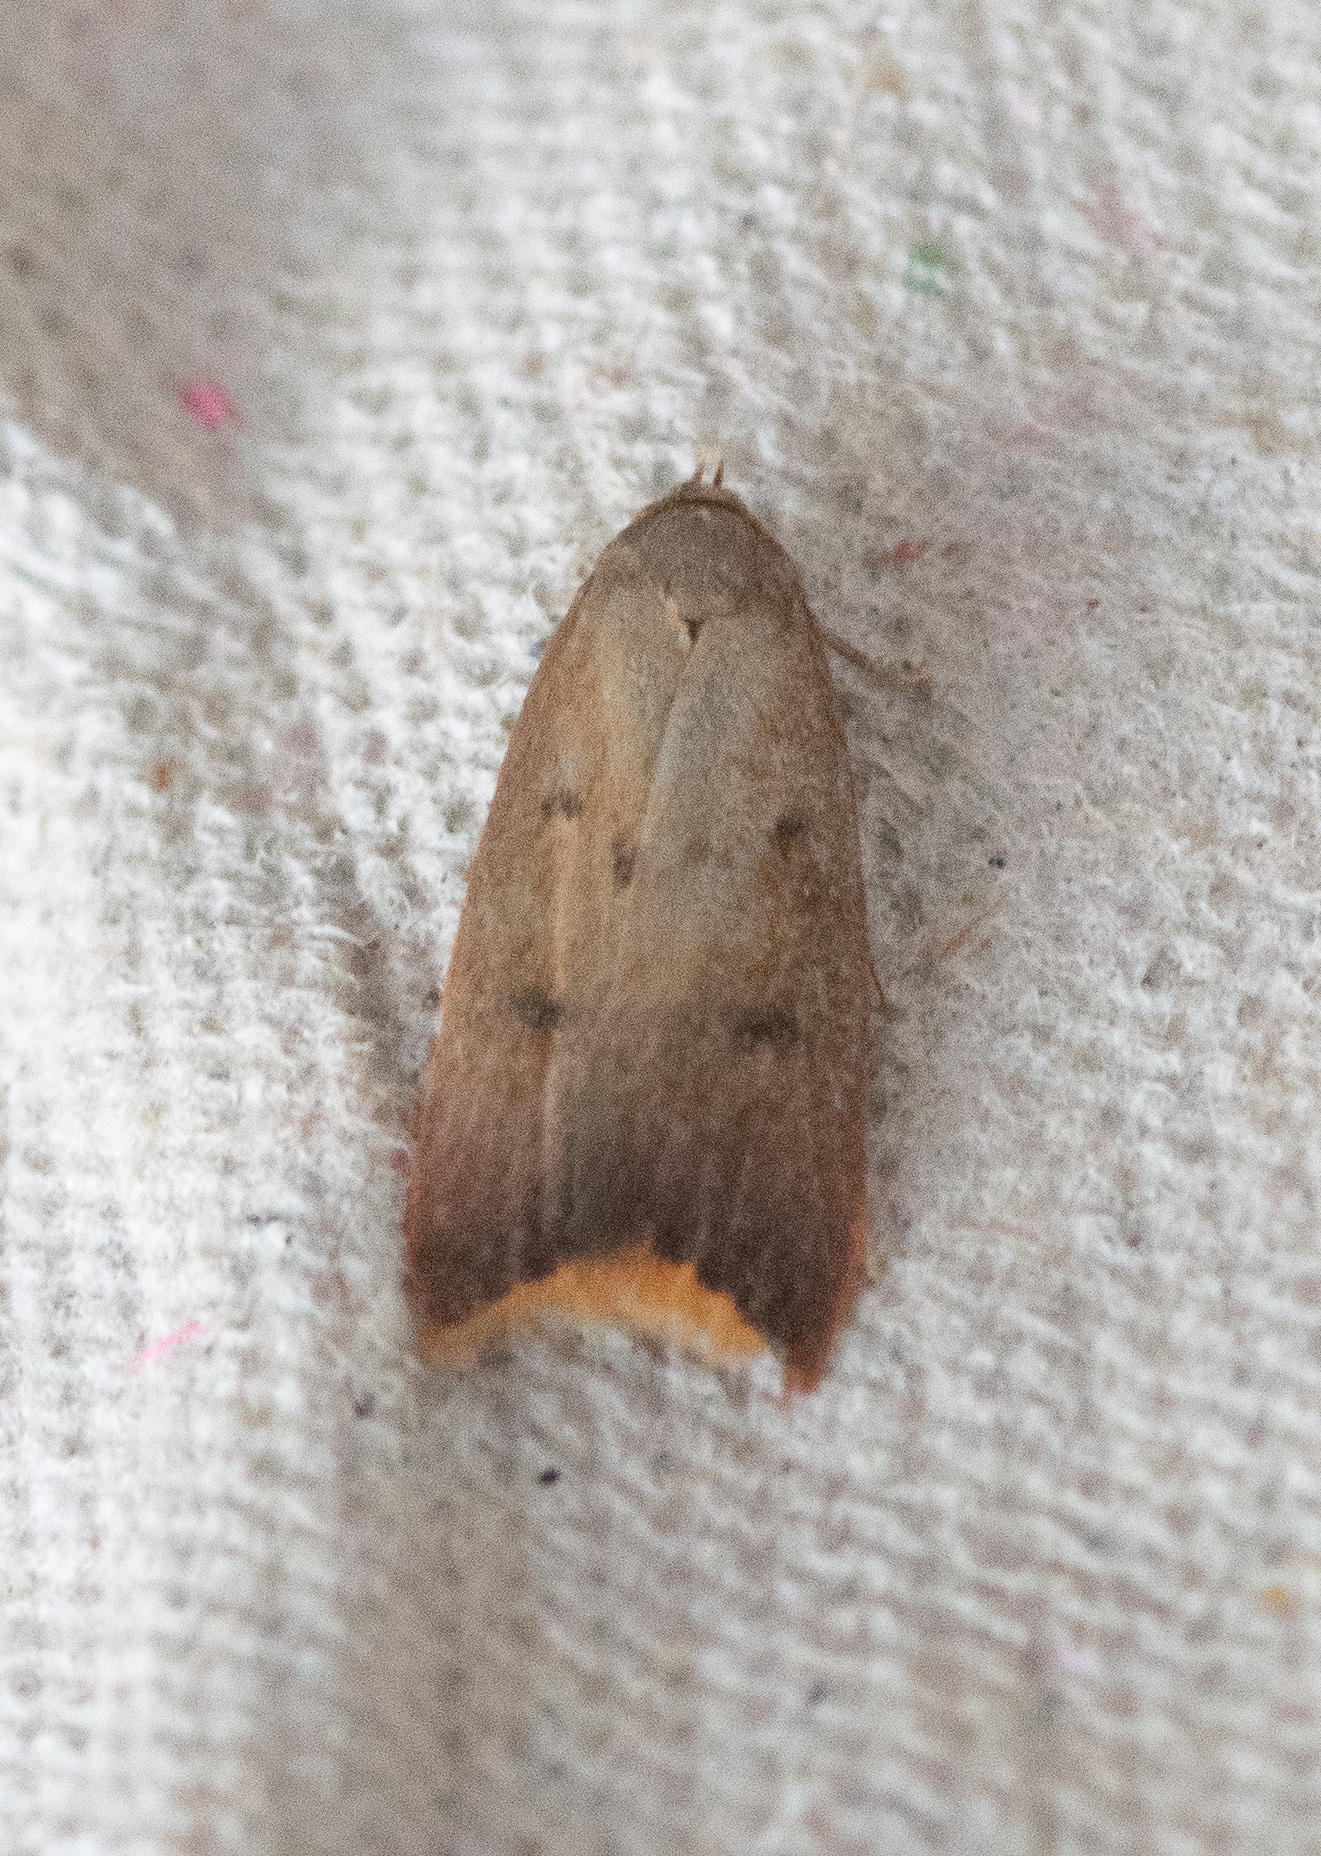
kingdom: Animalia
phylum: Arthropoda
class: Insecta
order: Lepidoptera
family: Oecophoridae
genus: Tachystola
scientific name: Tachystola acroxantha
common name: Ruddy streak
